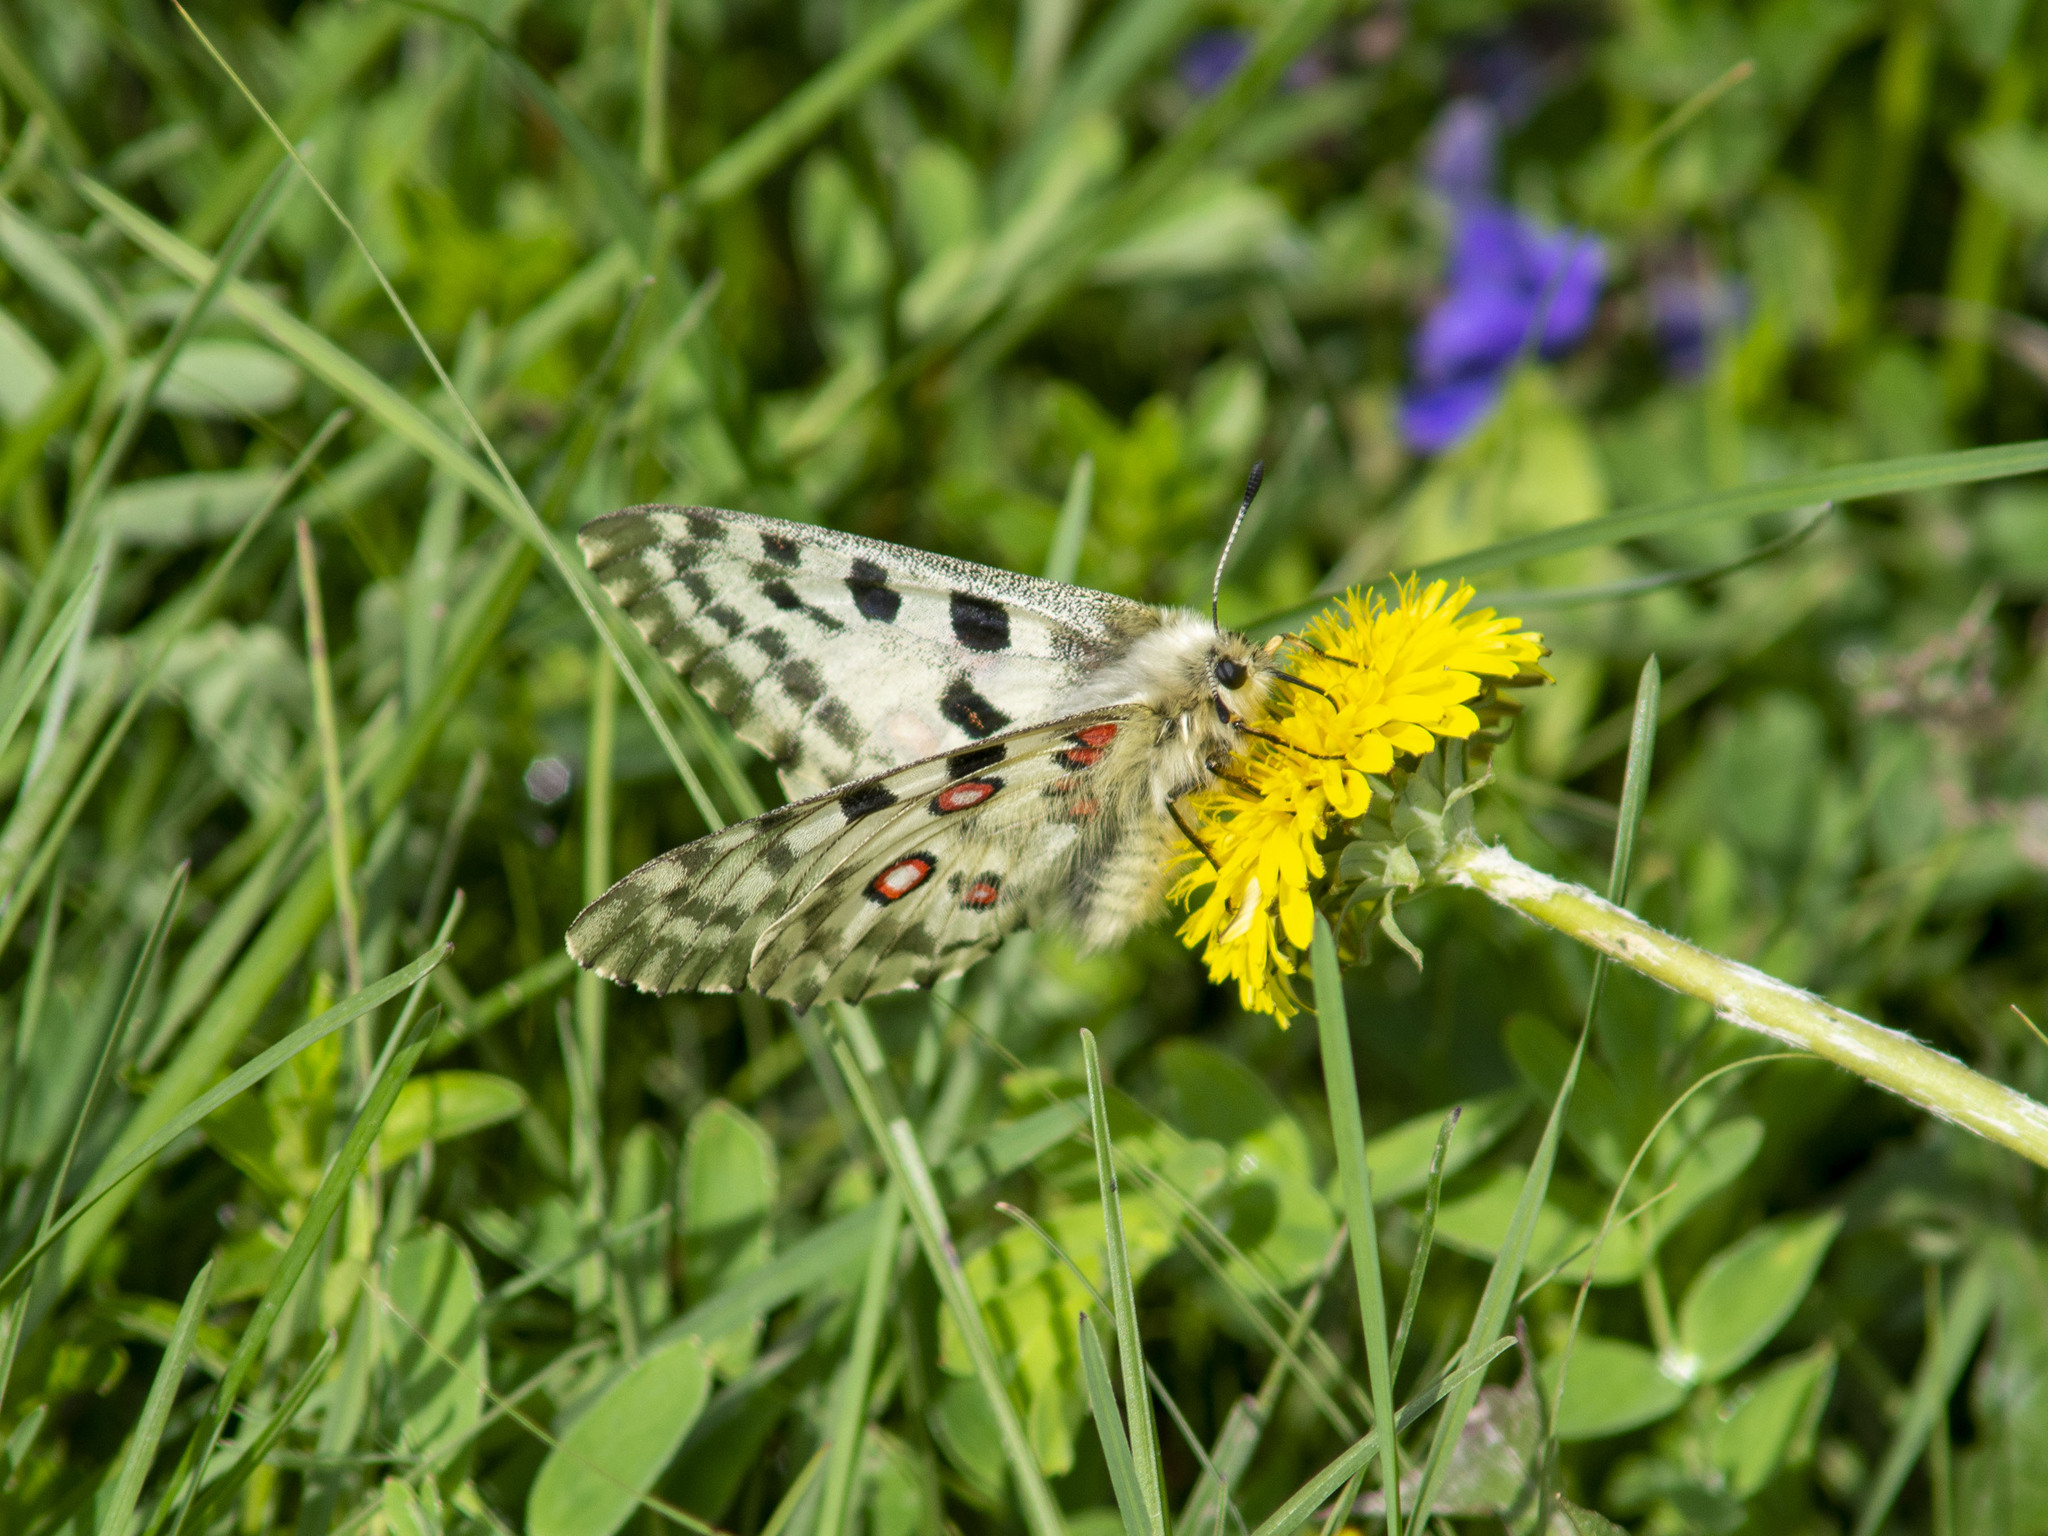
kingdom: Animalia
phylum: Arthropoda
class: Insecta
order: Lepidoptera
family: Papilionidae
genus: Parnassius
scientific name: Parnassius nomion
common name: Nomion apollo
